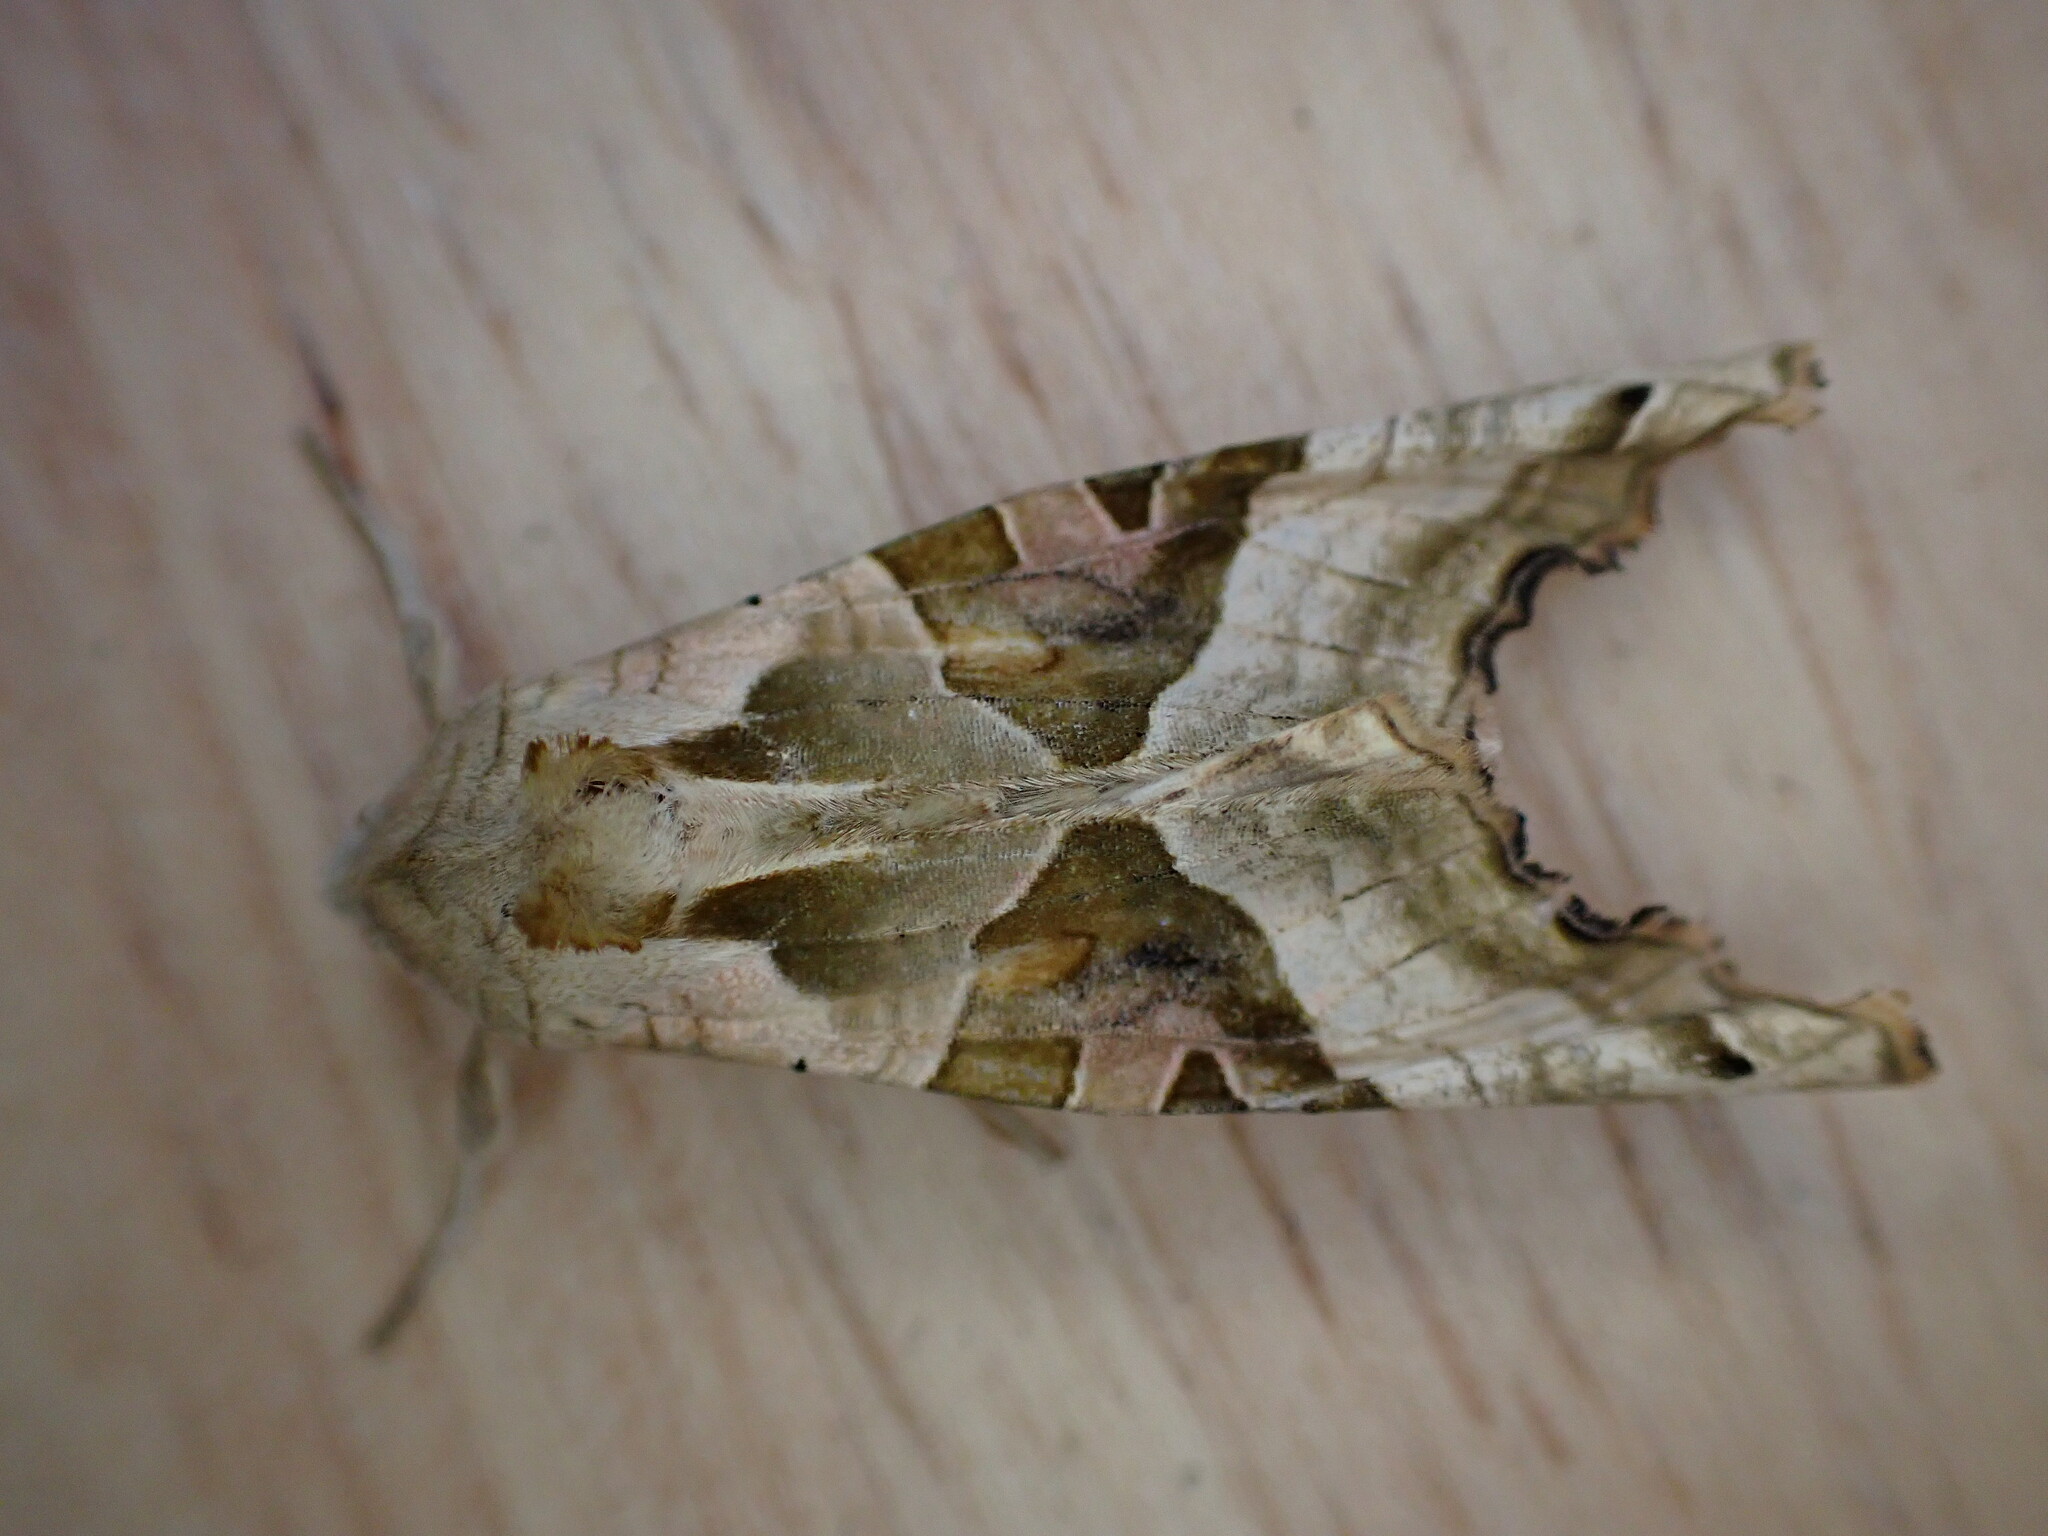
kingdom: Animalia
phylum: Arthropoda
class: Insecta
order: Lepidoptera
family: Noctuidae
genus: Phlogophora
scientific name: Phlogophora meticulosa
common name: Angle shades
